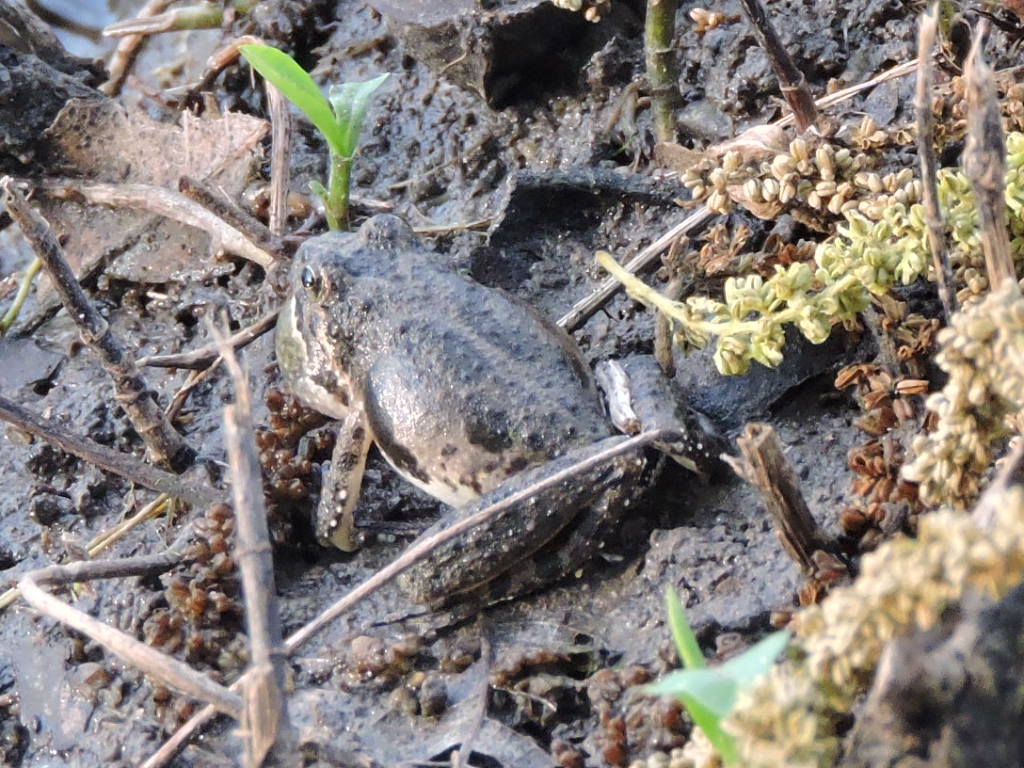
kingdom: Animalia
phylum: Chordata
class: Amphibia
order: Anura
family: Hylidae
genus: Acris
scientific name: Acris blanchardi
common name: Blanchard's cricket frog
